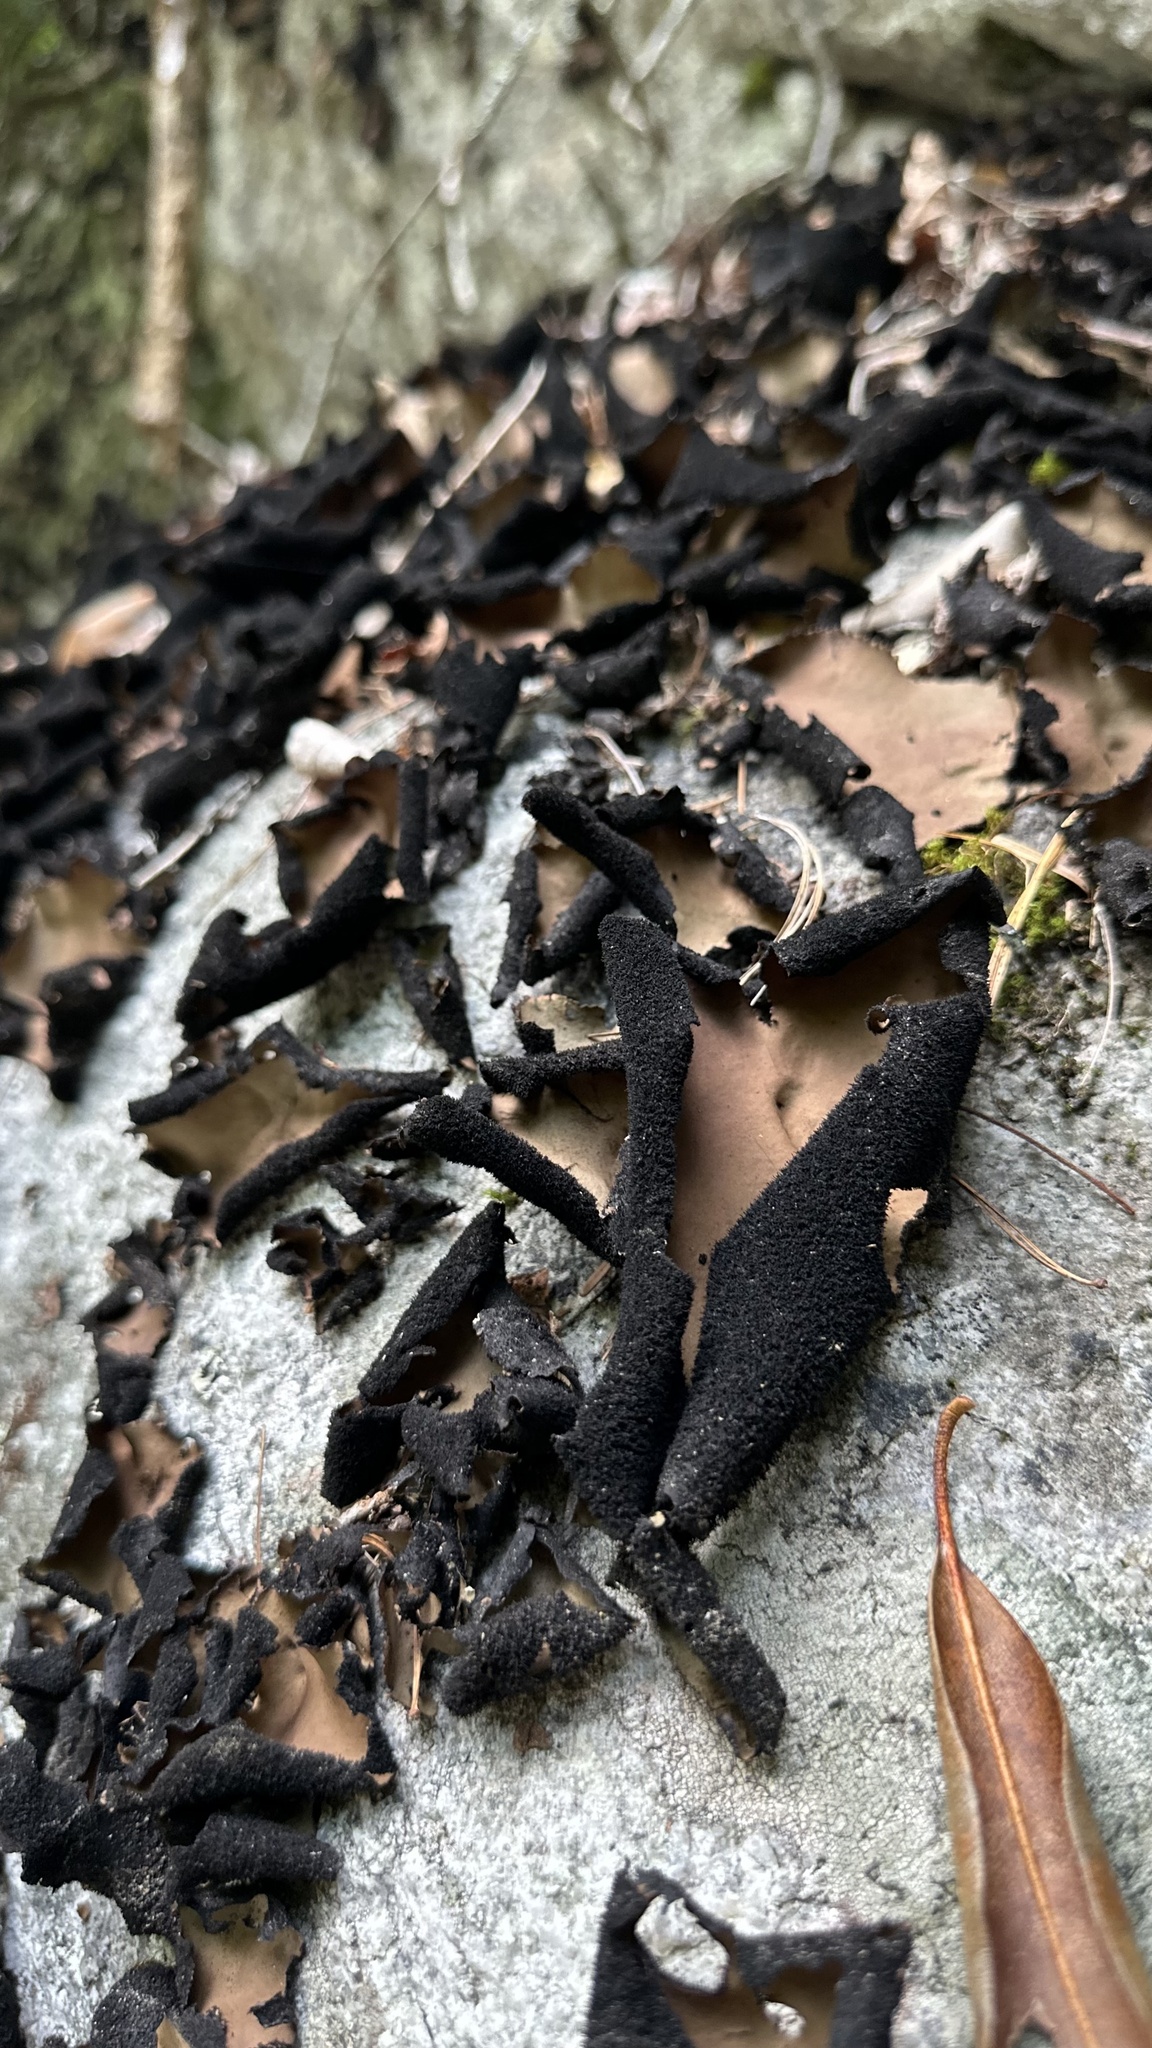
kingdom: Fungi
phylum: Ascomycota
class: Lecanoromycetes
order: Umbilicariales
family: Umbilicariaceae
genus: Umbilicaria
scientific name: Umbilicaria mammulata
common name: Smooth rock tripe
